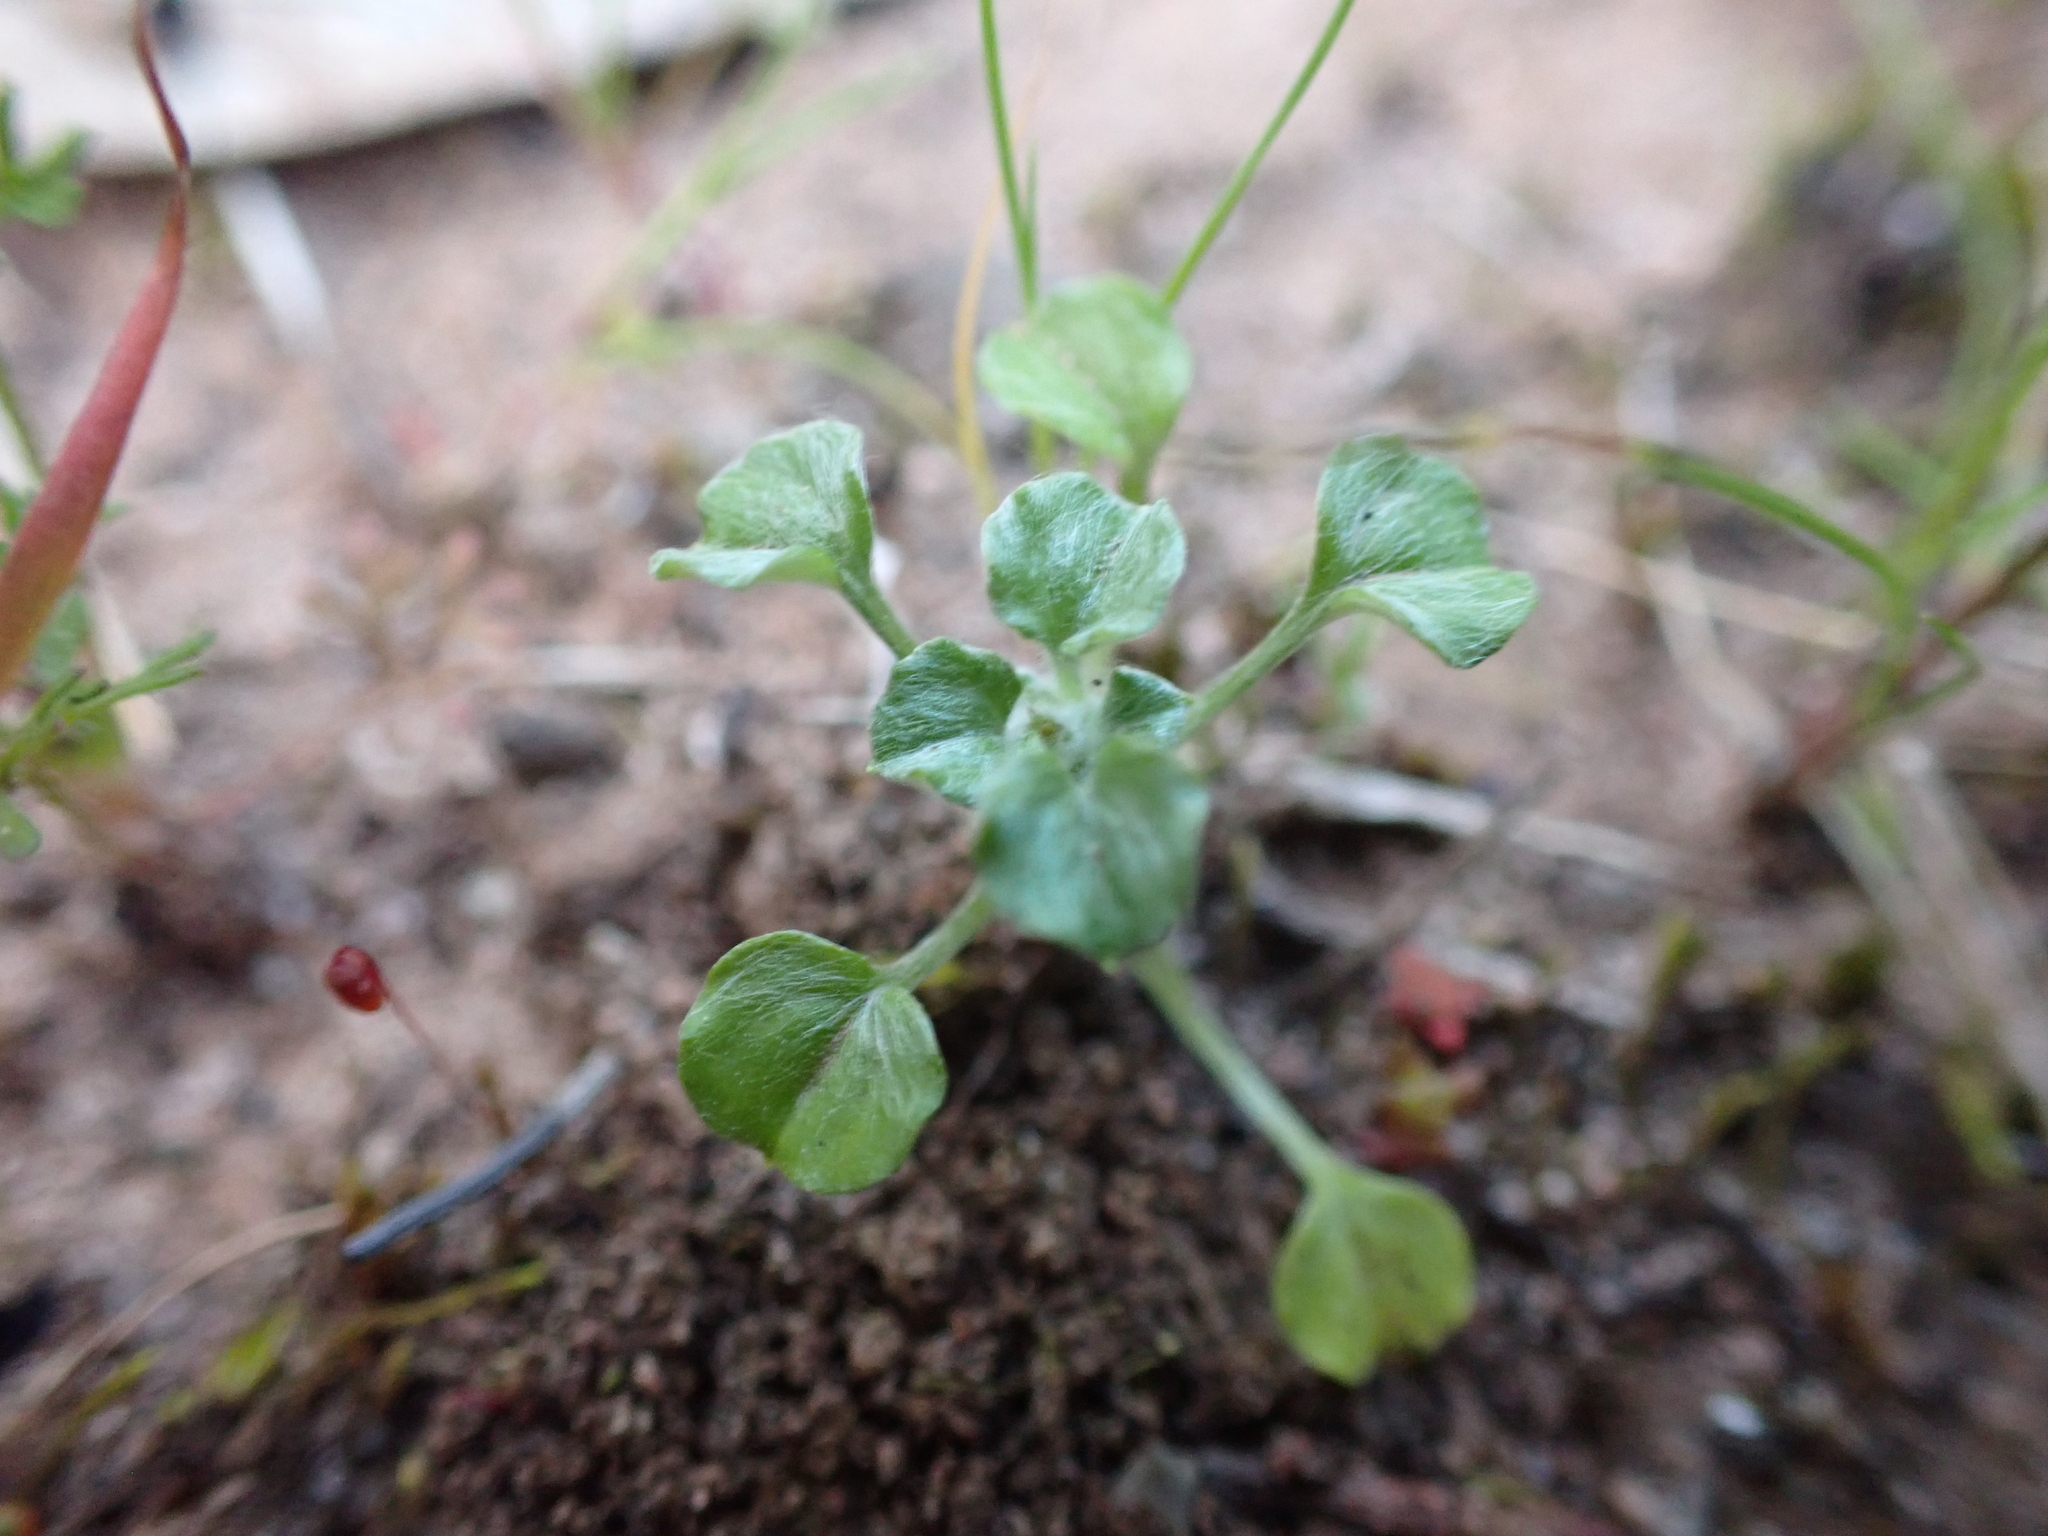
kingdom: Plantae
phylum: Tracheophyta
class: Magnoliopsida
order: Asterales
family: Asteraceae
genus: Stuartina
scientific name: Stuartina muelleri
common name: Spoon-leaved cudweed
